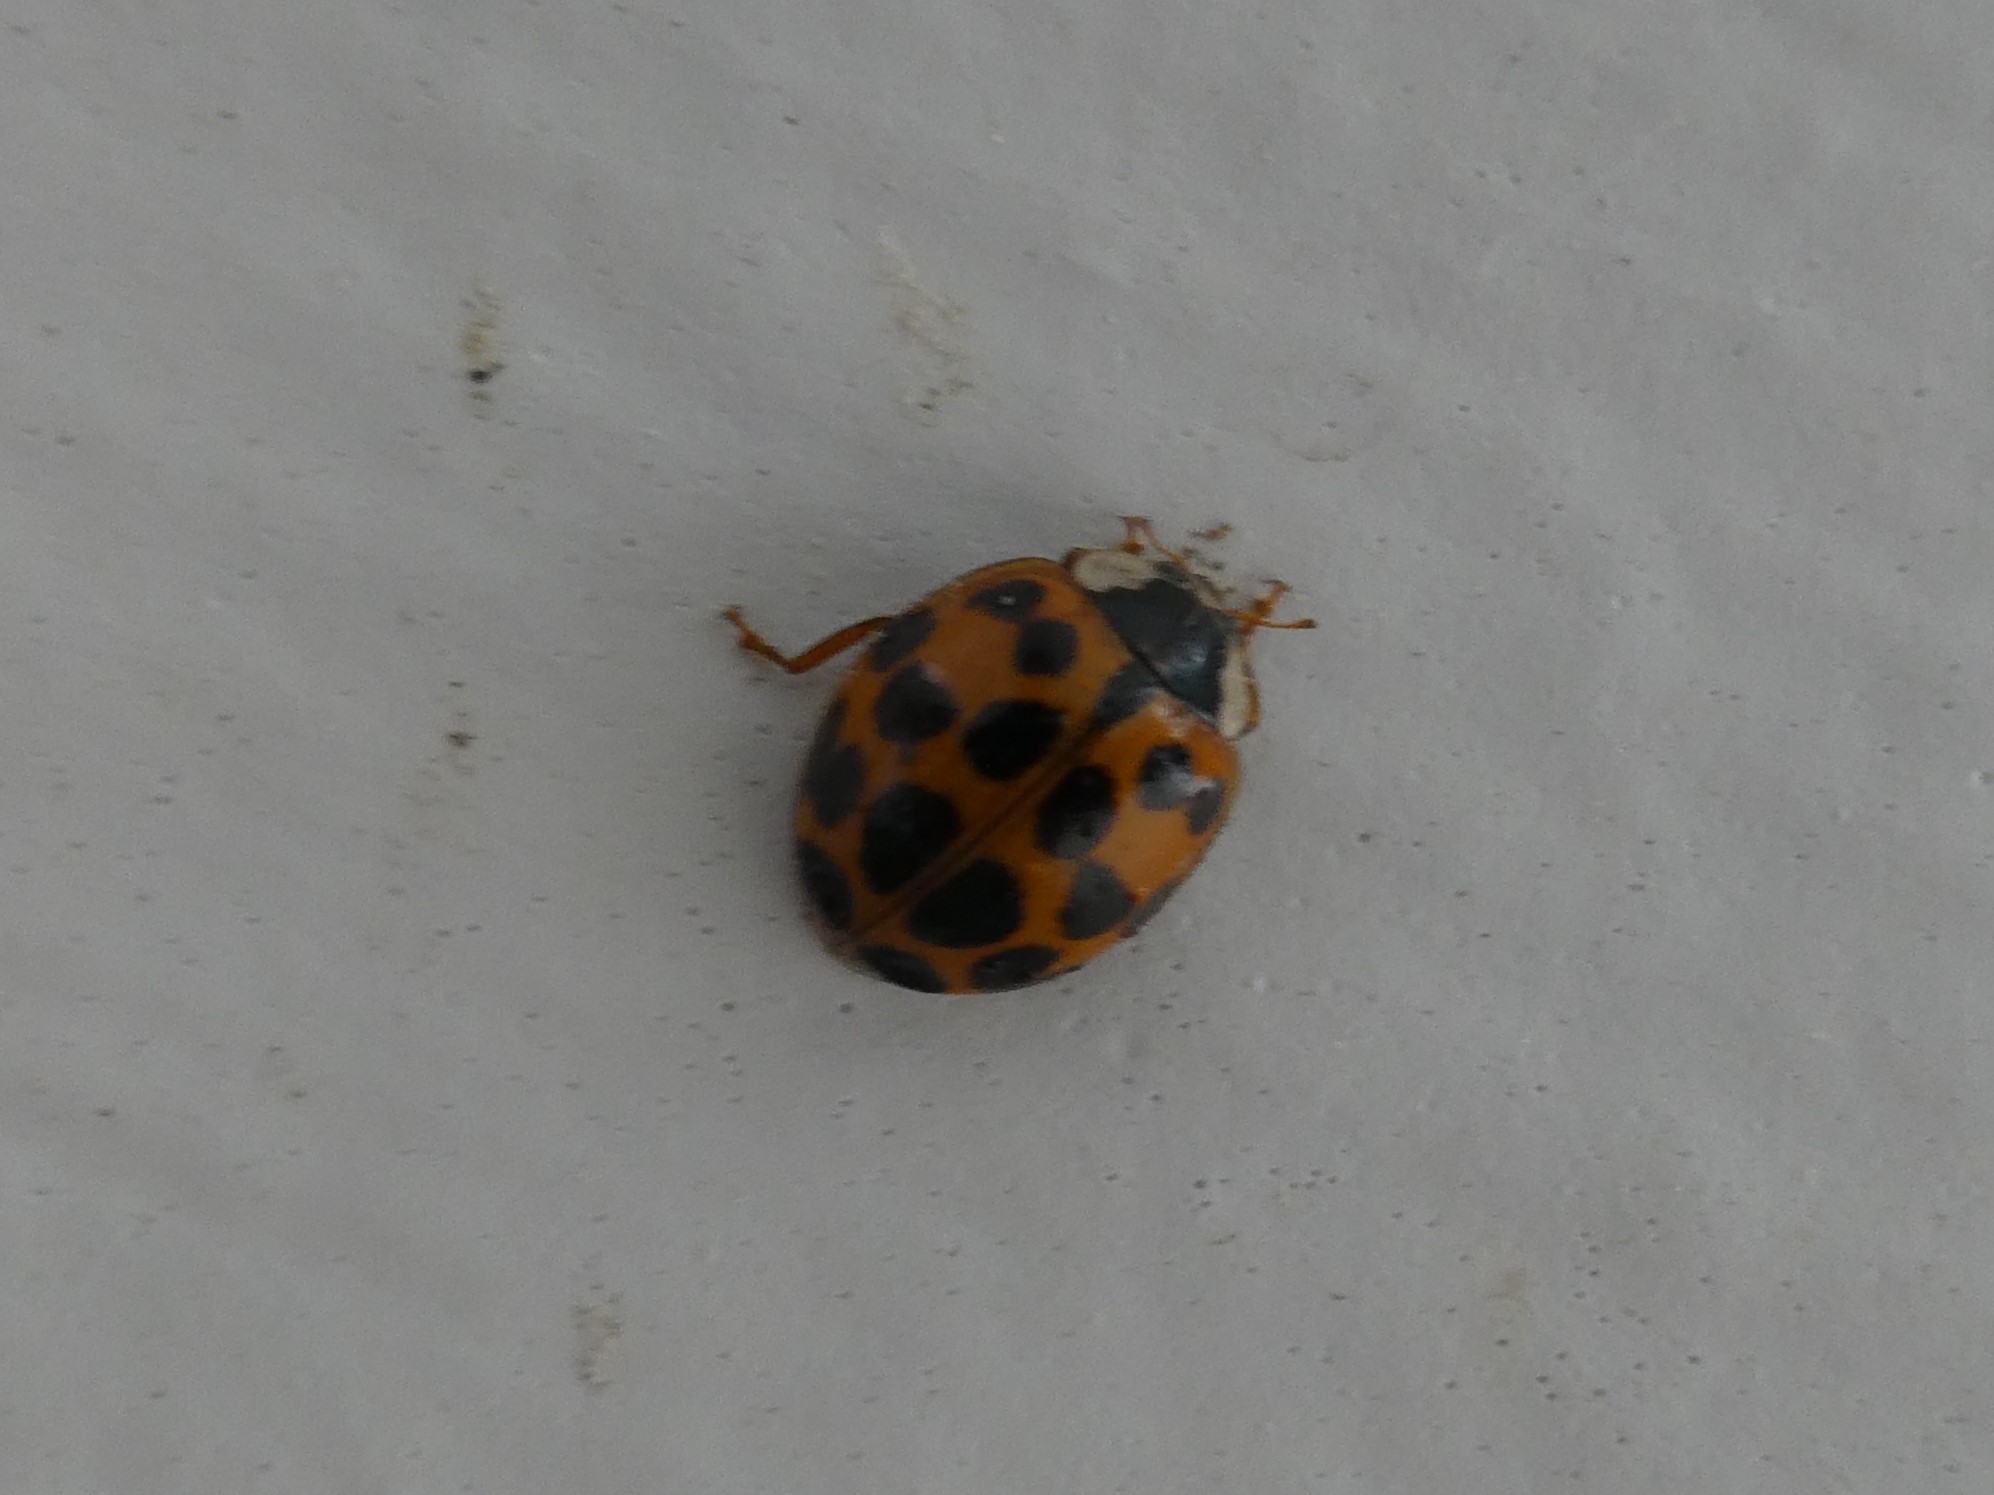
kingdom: Animalia
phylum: Arthropoda
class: Insecta
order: Coleoptera
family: Coccinellidae
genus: Harmonia
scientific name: Harmonia axyridis
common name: Harlequin ladybird
